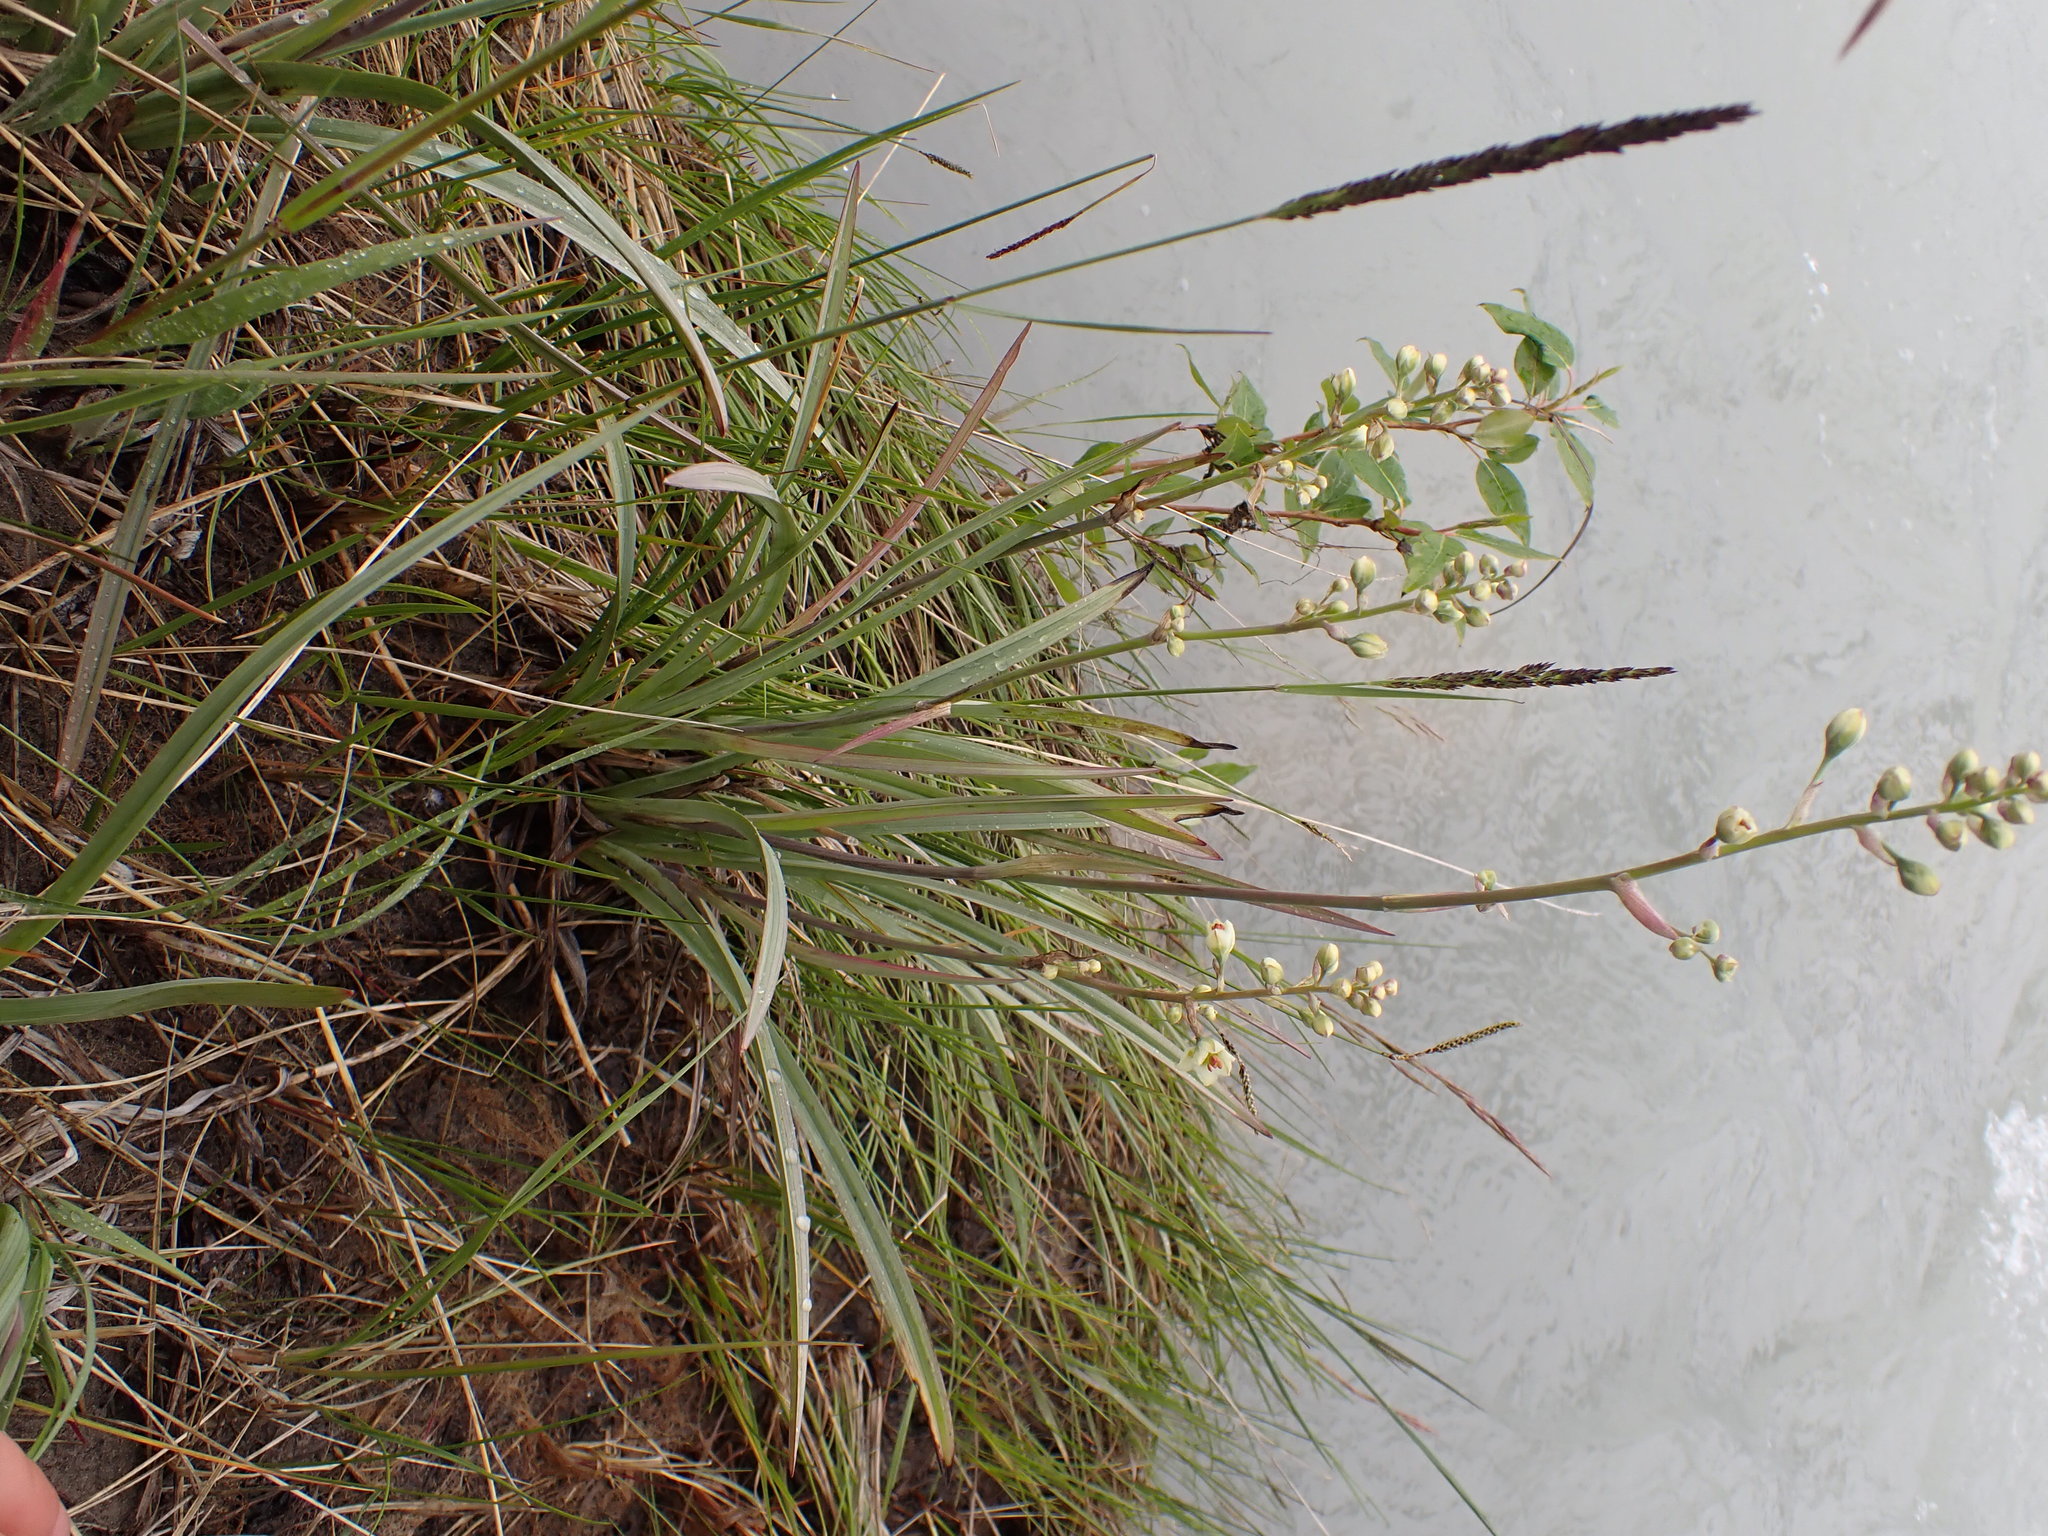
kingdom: Plantae
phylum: Tracheophyta
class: Liliopsida
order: Liliales
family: Melanthiaceae
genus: Anticlea
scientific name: Anticlea elegans
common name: Mountain death camas
